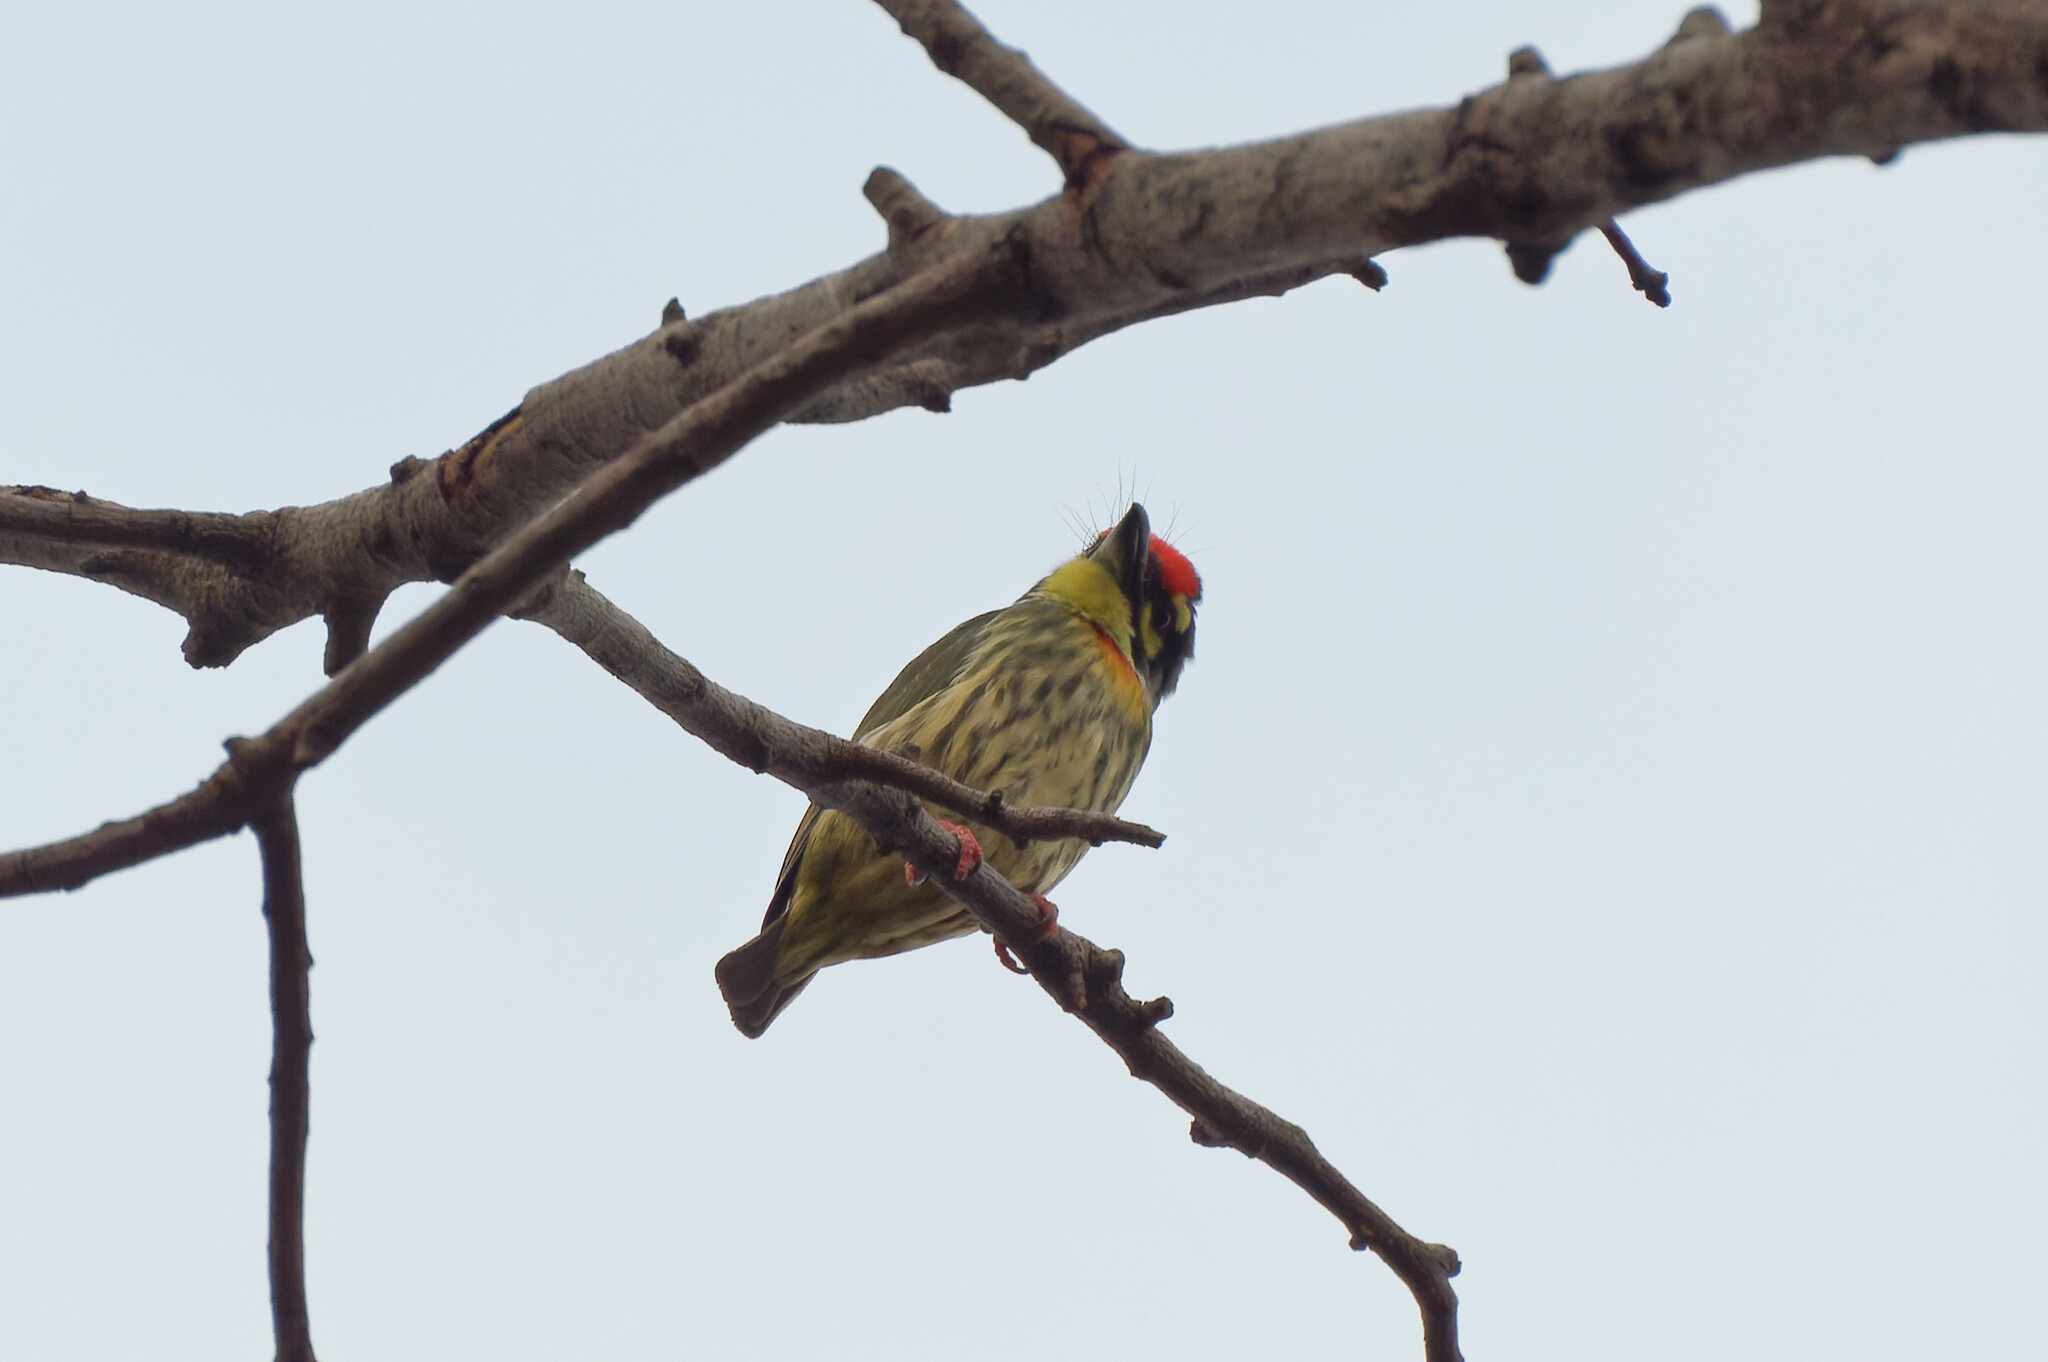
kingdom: Animalia
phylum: Chordata
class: Aves
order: Piciformes
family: Megalaimidae
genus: Psilopogon
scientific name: Psilopogon haemacephalus
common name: Coppersmith barbet
